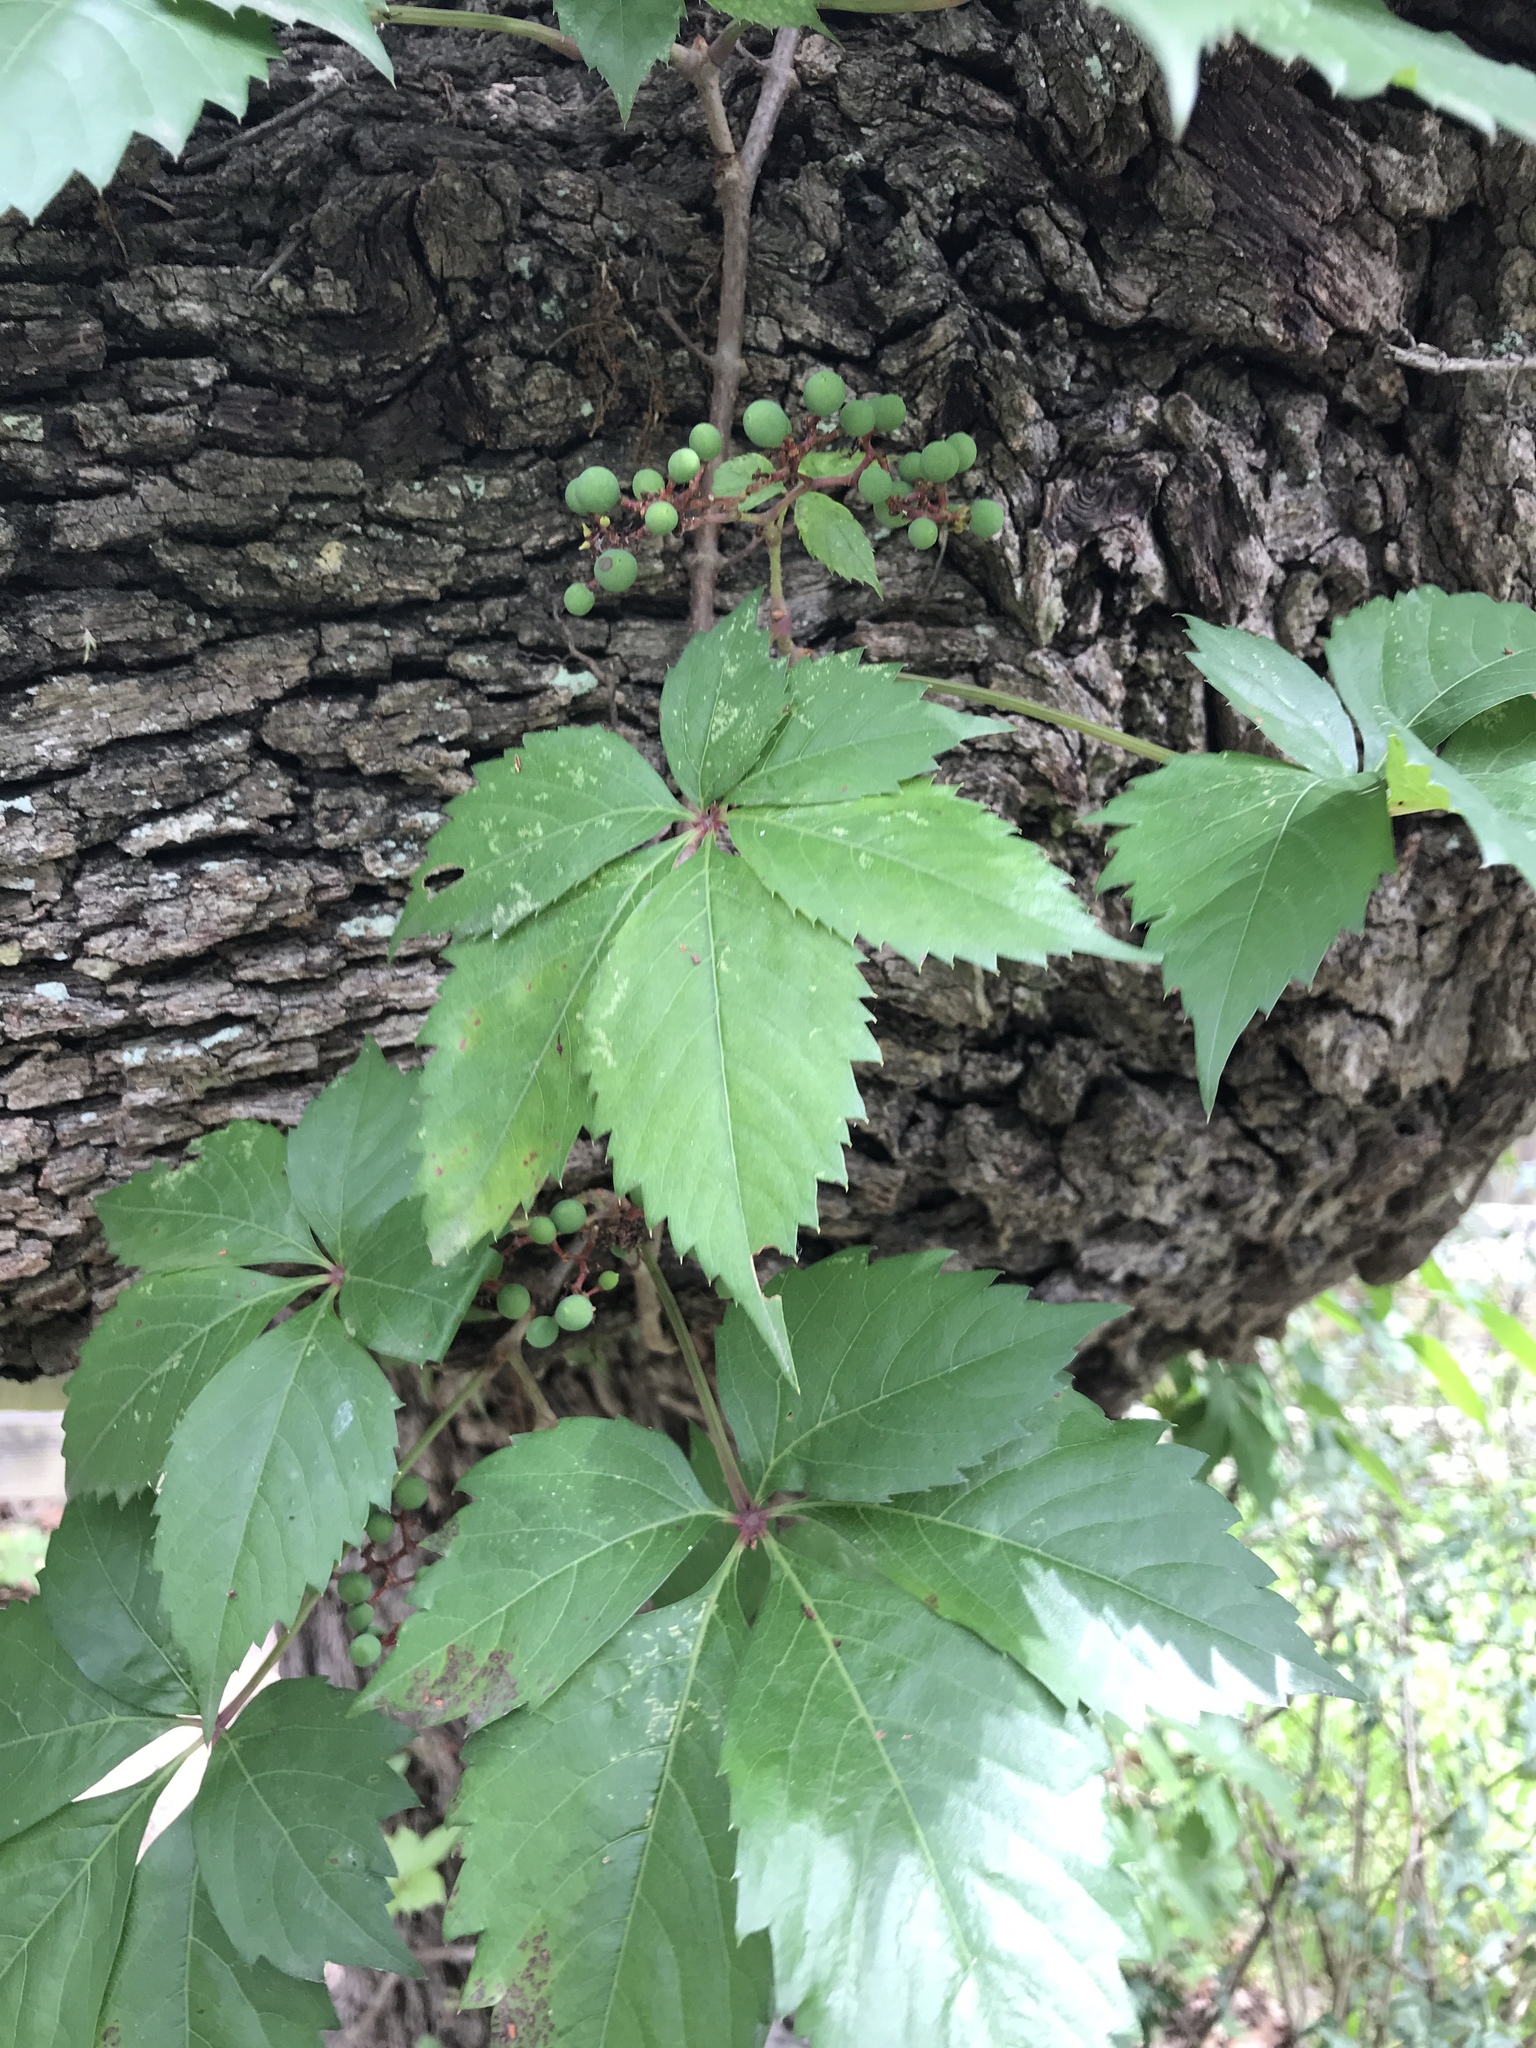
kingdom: Plantae
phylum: Tracheophyta
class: Magnoliopsida
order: Vitales
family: Vitaceae
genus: Parthenocissus
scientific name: Parthenocissus quinquefolia
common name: Virginia-creeper
